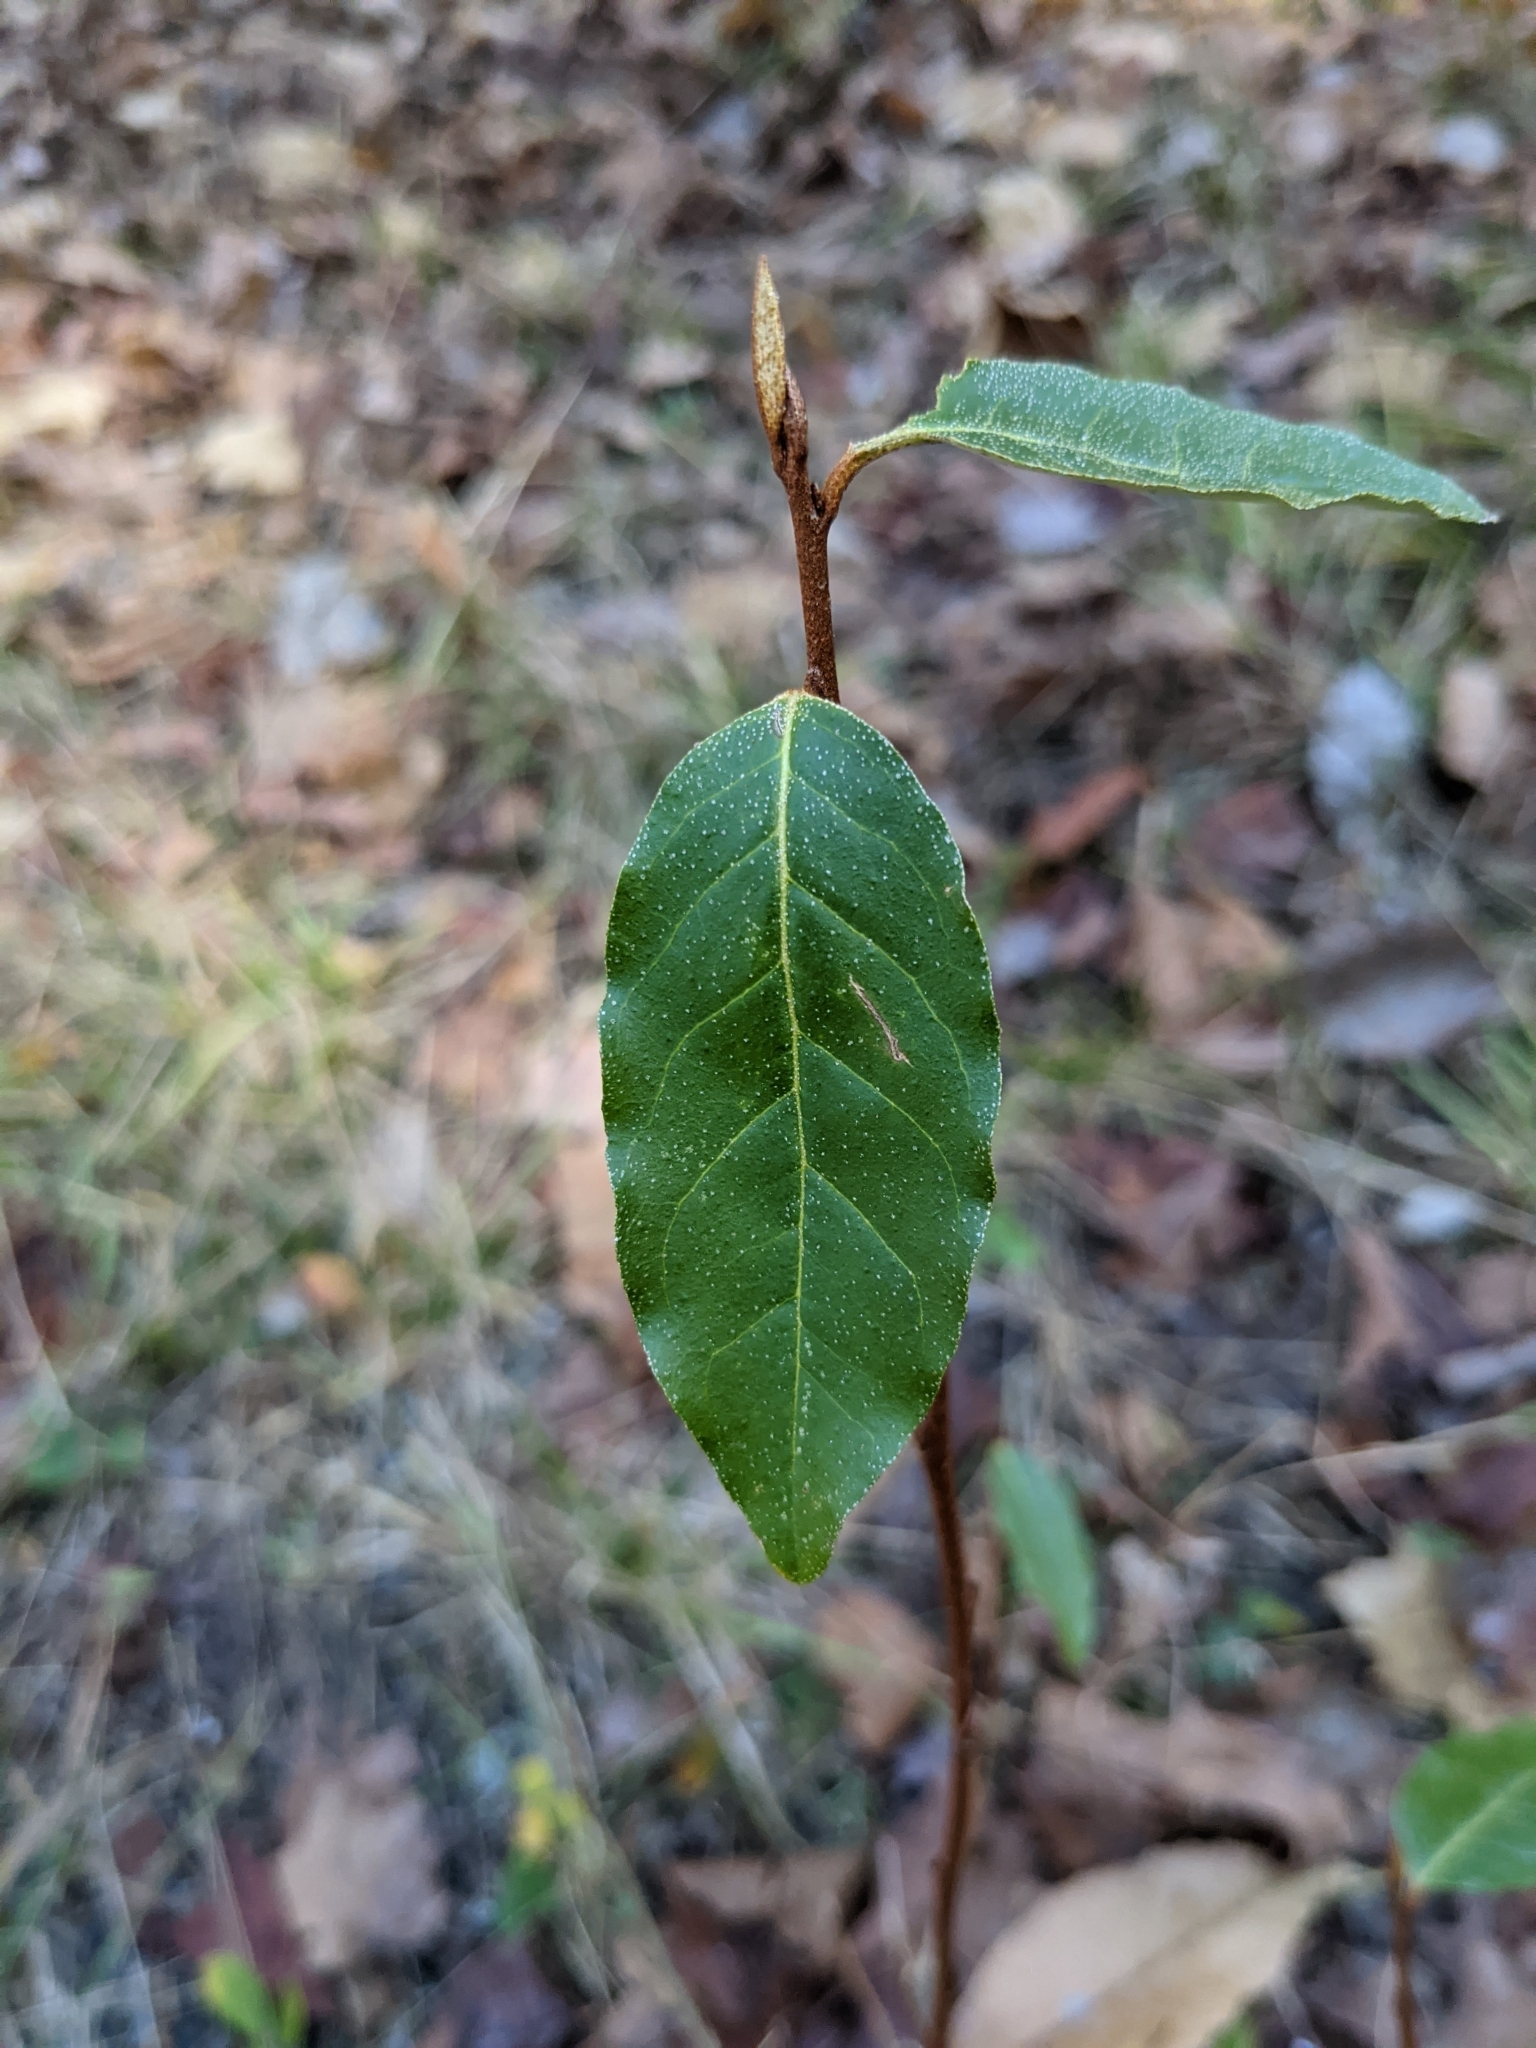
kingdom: Plantae
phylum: Tracheophyta
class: Magnoliopsida
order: Rosales
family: Elaeagnaceae
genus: Elaeagnus
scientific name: Elaeagnus umbellata
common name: Autumn olive
